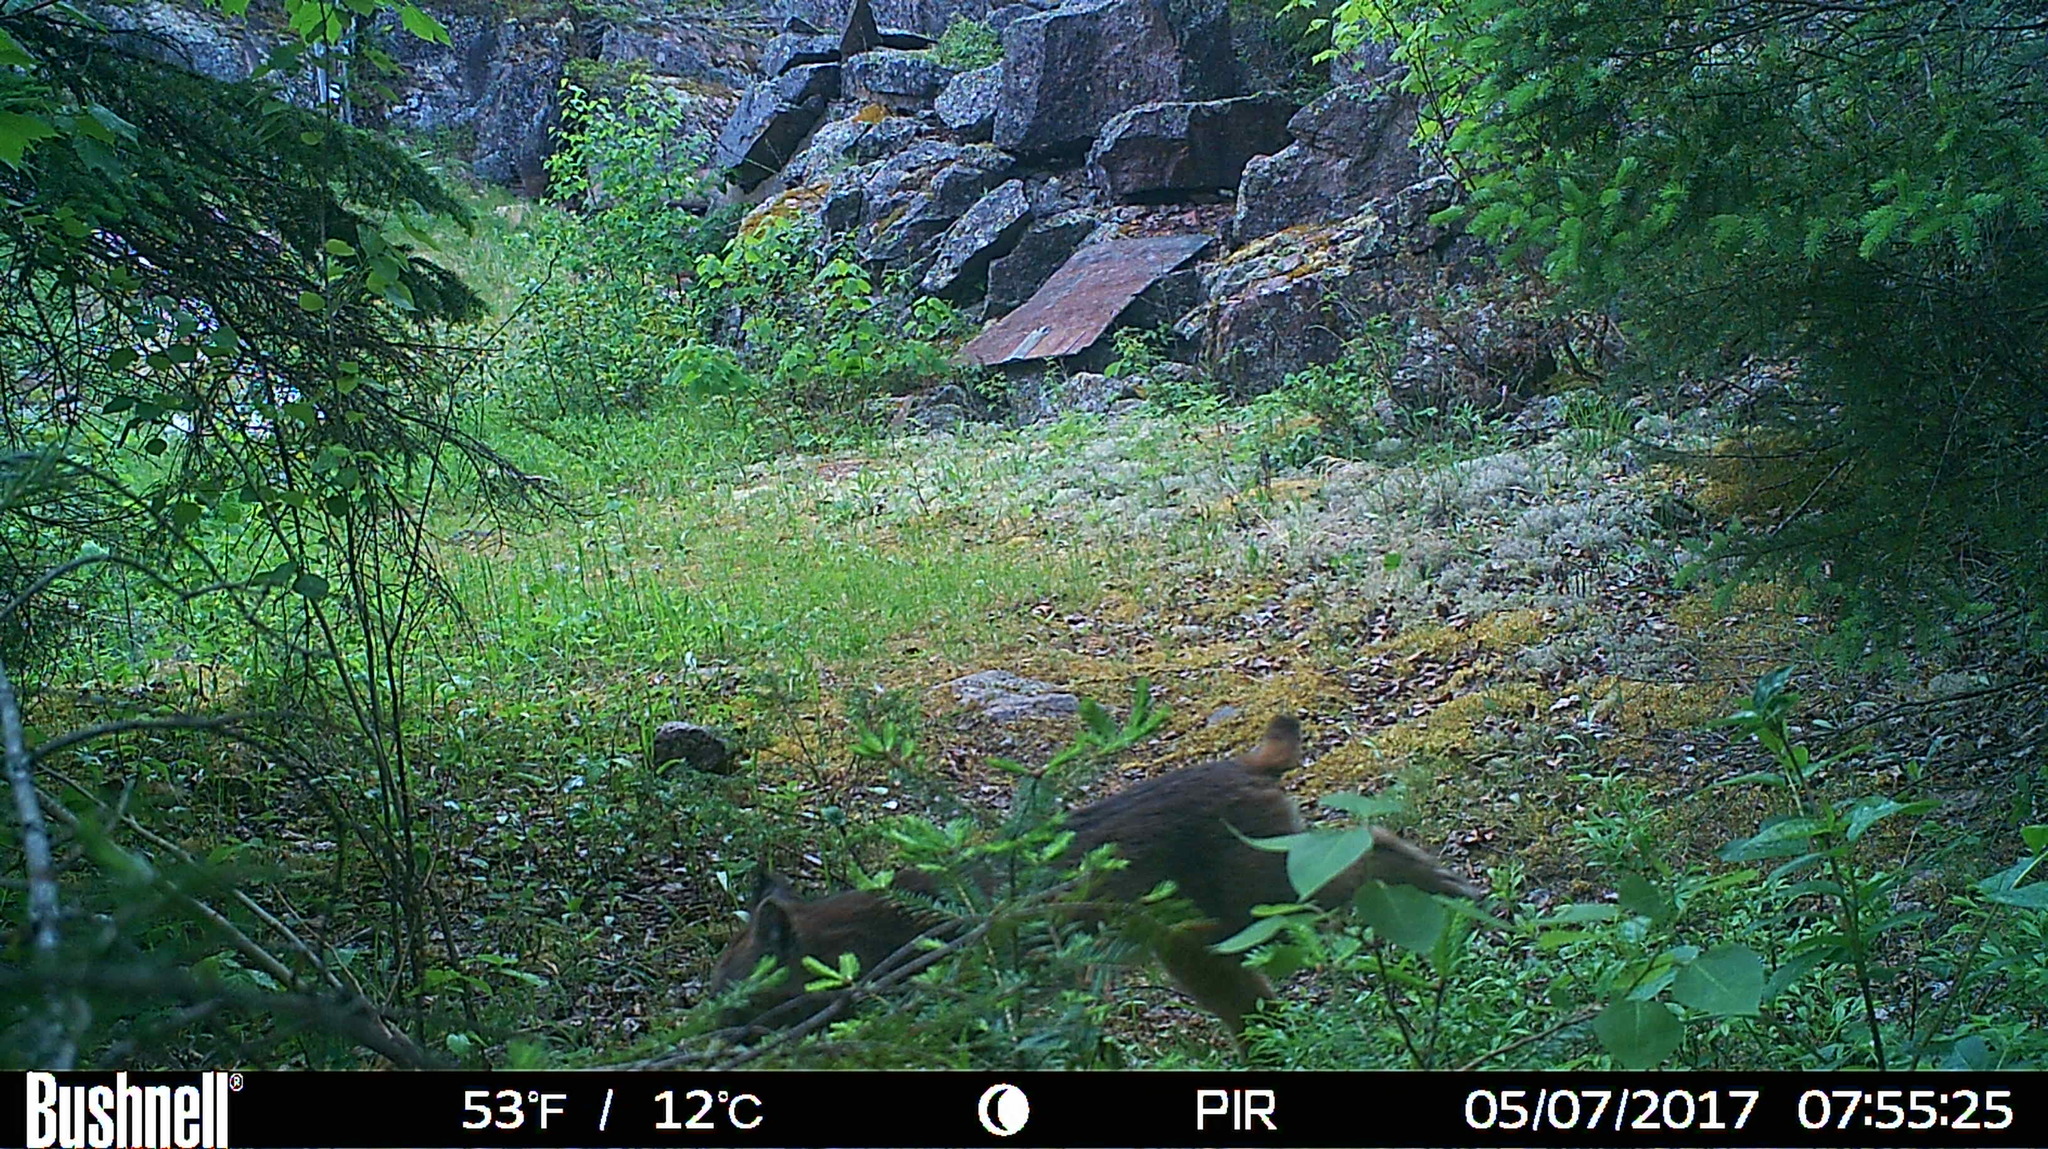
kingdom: Animalia
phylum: Chordata
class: Mammalia
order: Carnivora
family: Felidae
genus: Lynx
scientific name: Lynx canadensis
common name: Canadian lynx
